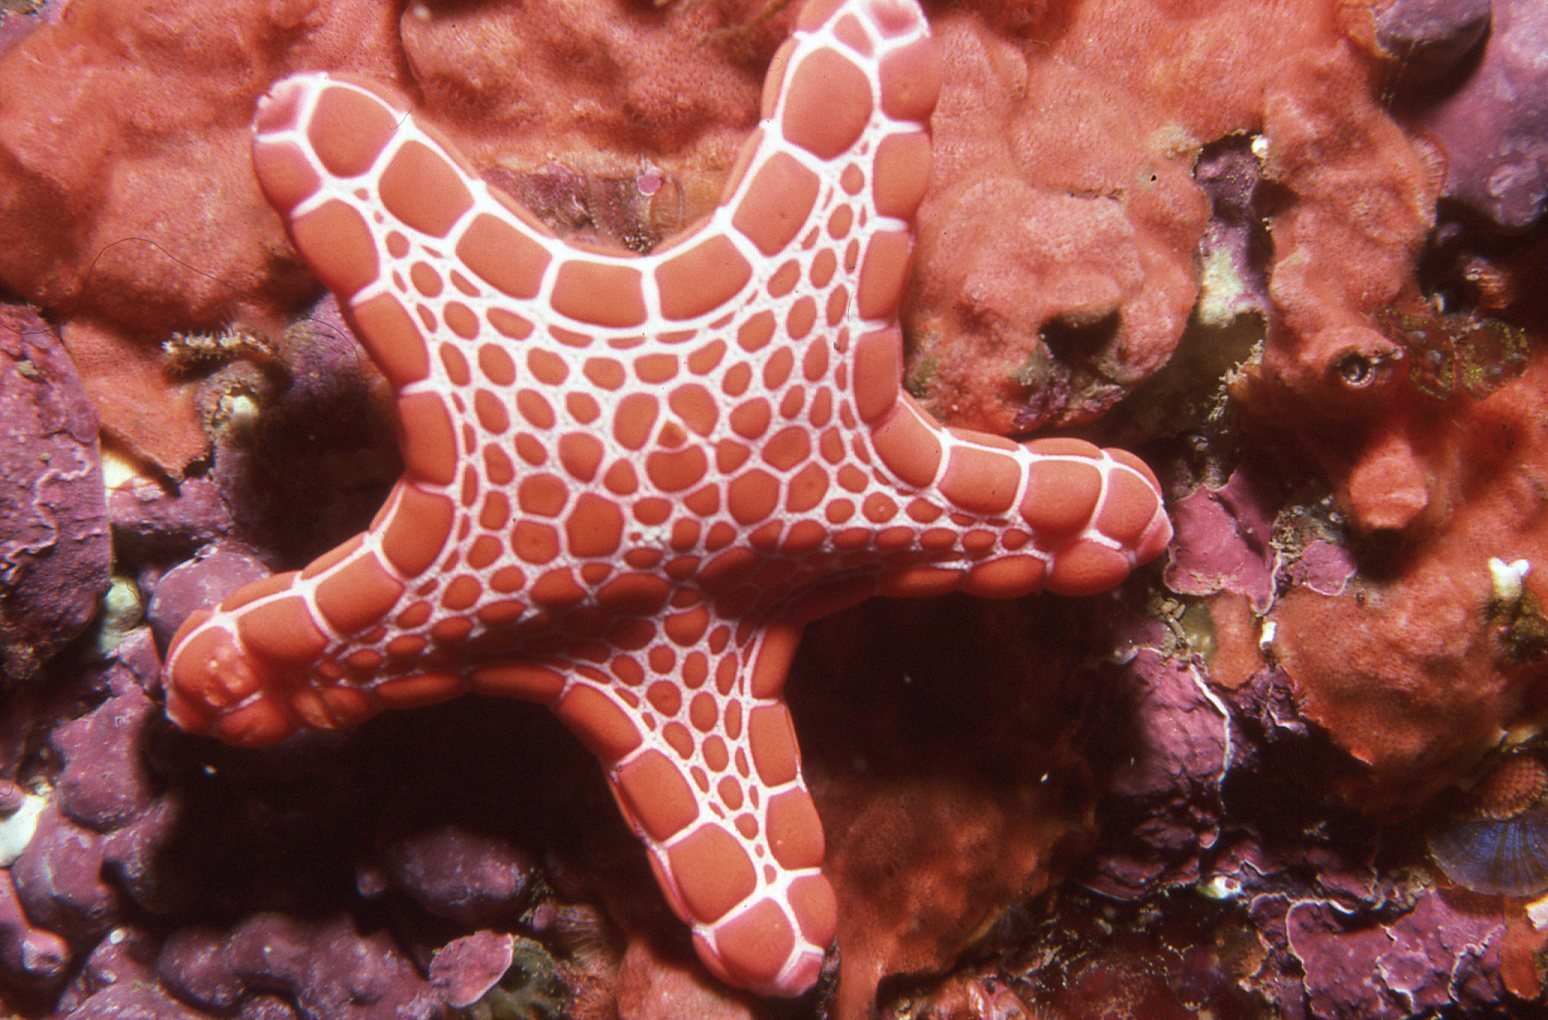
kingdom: Animalia
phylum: Echinodermata
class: Asteroidea
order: Valvatida
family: Goniasteridae
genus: Pentagonaster
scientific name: Pentagonaster duebeni
